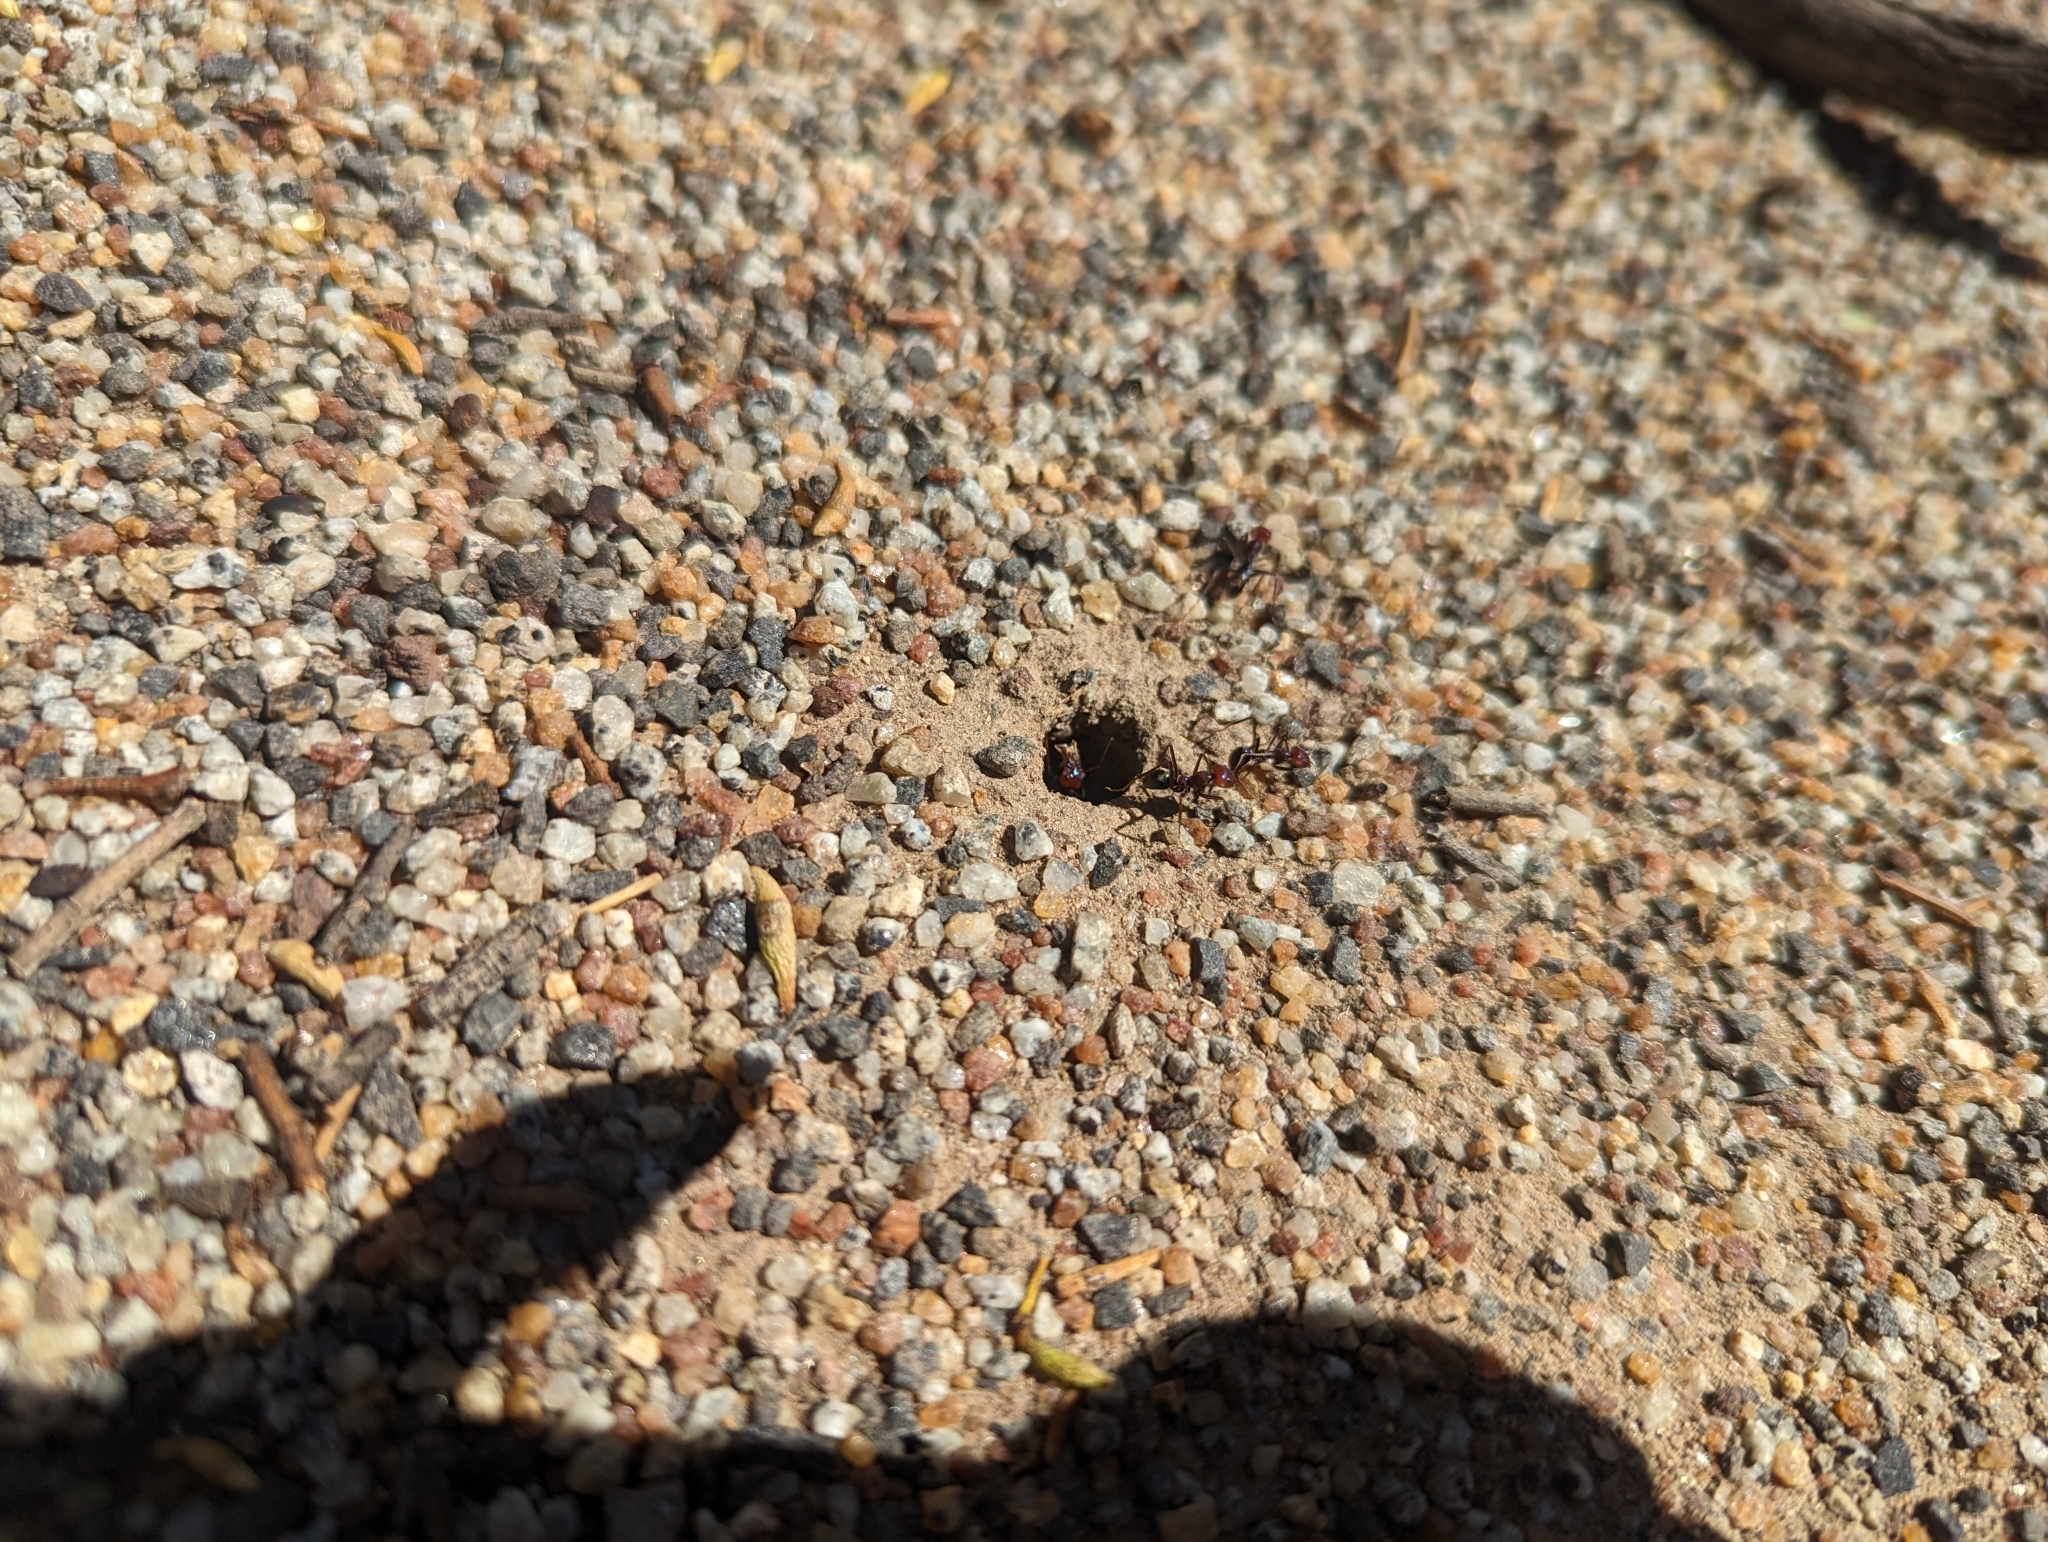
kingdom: Animalia
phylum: Arthropoda
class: Insecta
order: Hymenoptera
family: Formicidae
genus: Iridomyrmex
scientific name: Iridomyrmex purpureus
